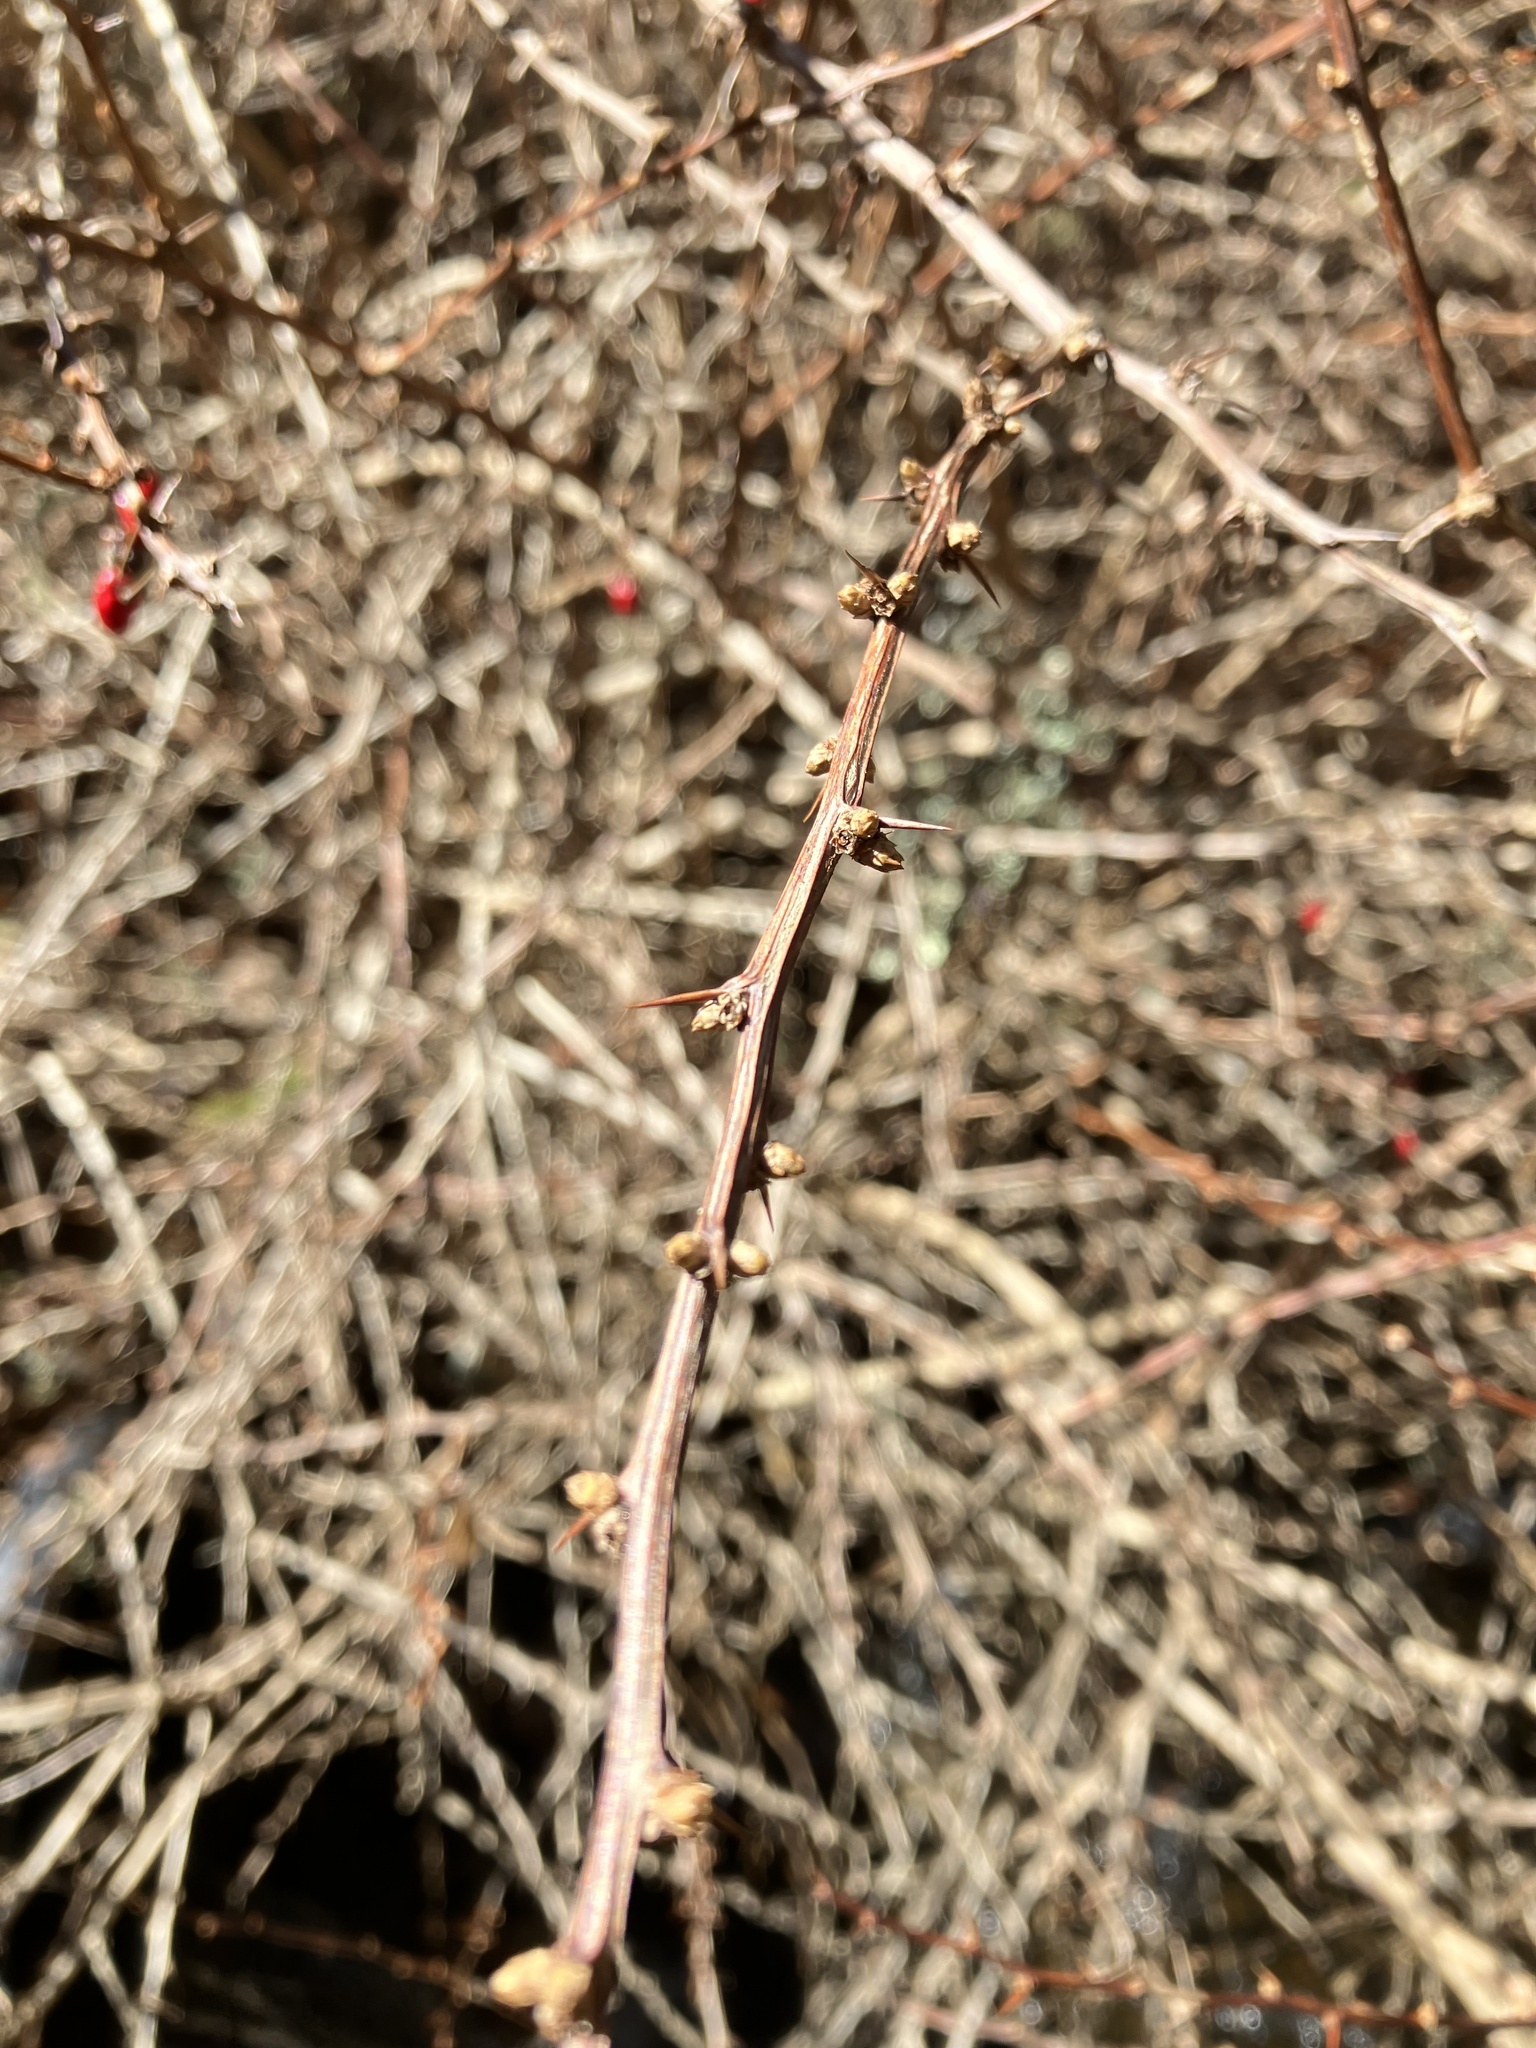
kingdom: Plantae
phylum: Tracheophyta
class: Magnoliopsida
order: Ranunculales
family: Berberidaceae
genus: Berberis
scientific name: Berberis thunbergii
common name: Japanese barberry
